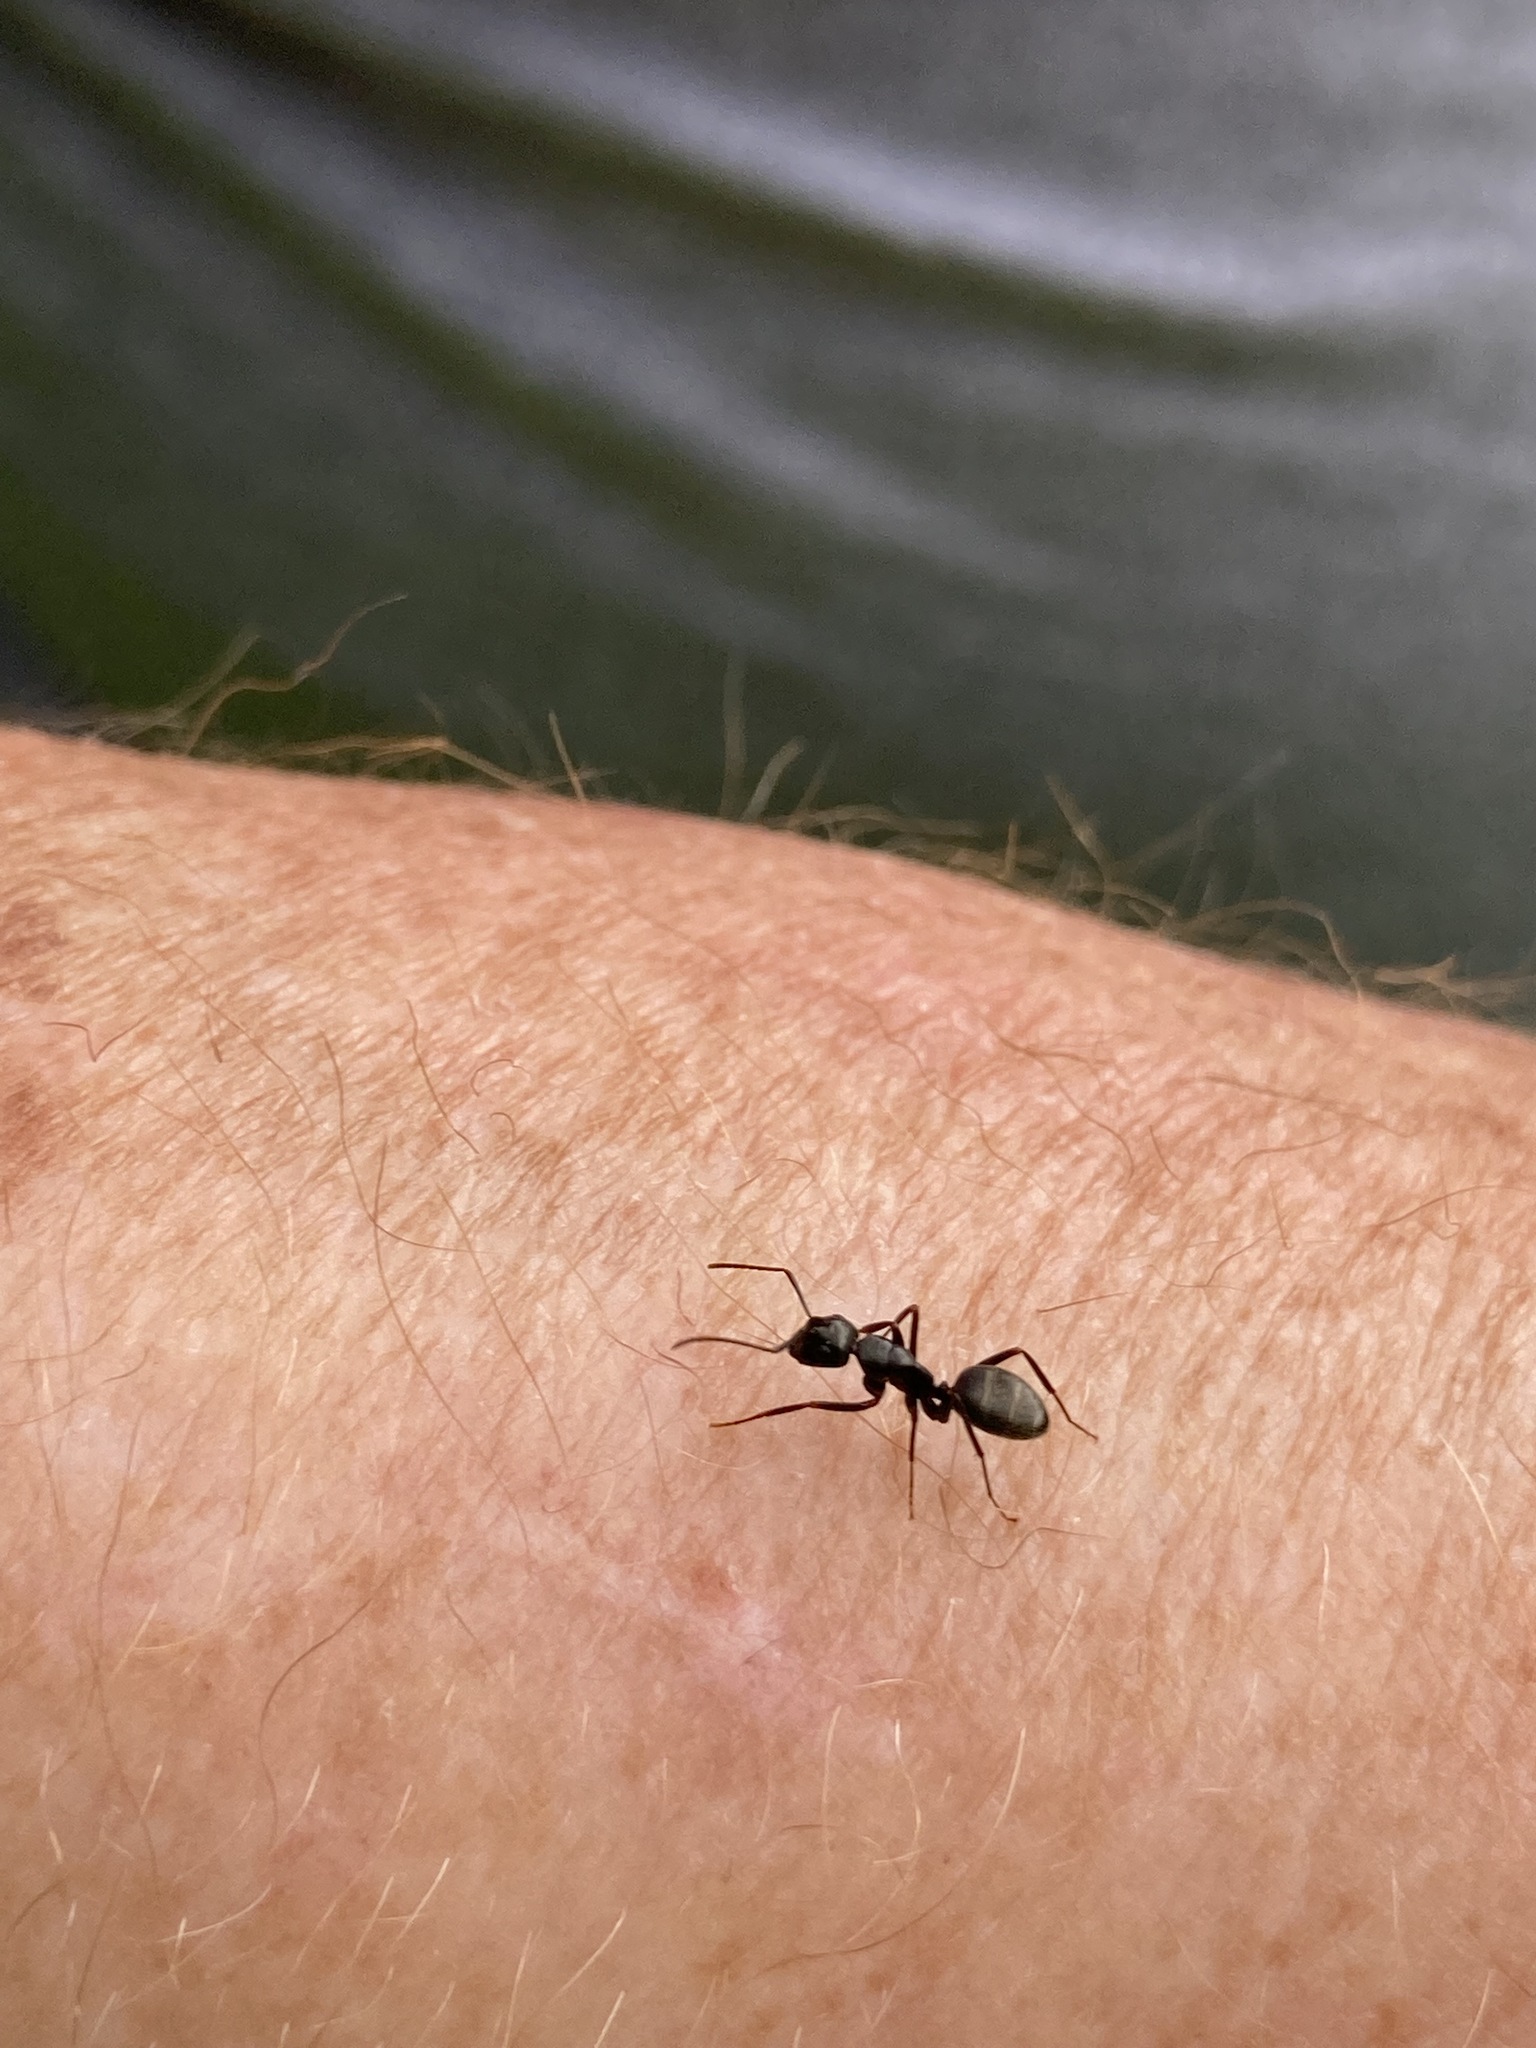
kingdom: Animalia
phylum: Arthropoda
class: Insecta
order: Hymenoptera
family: Formicidae
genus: Camponotus
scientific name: Camponotus pennsylvanicus
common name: Black carpenter ant
